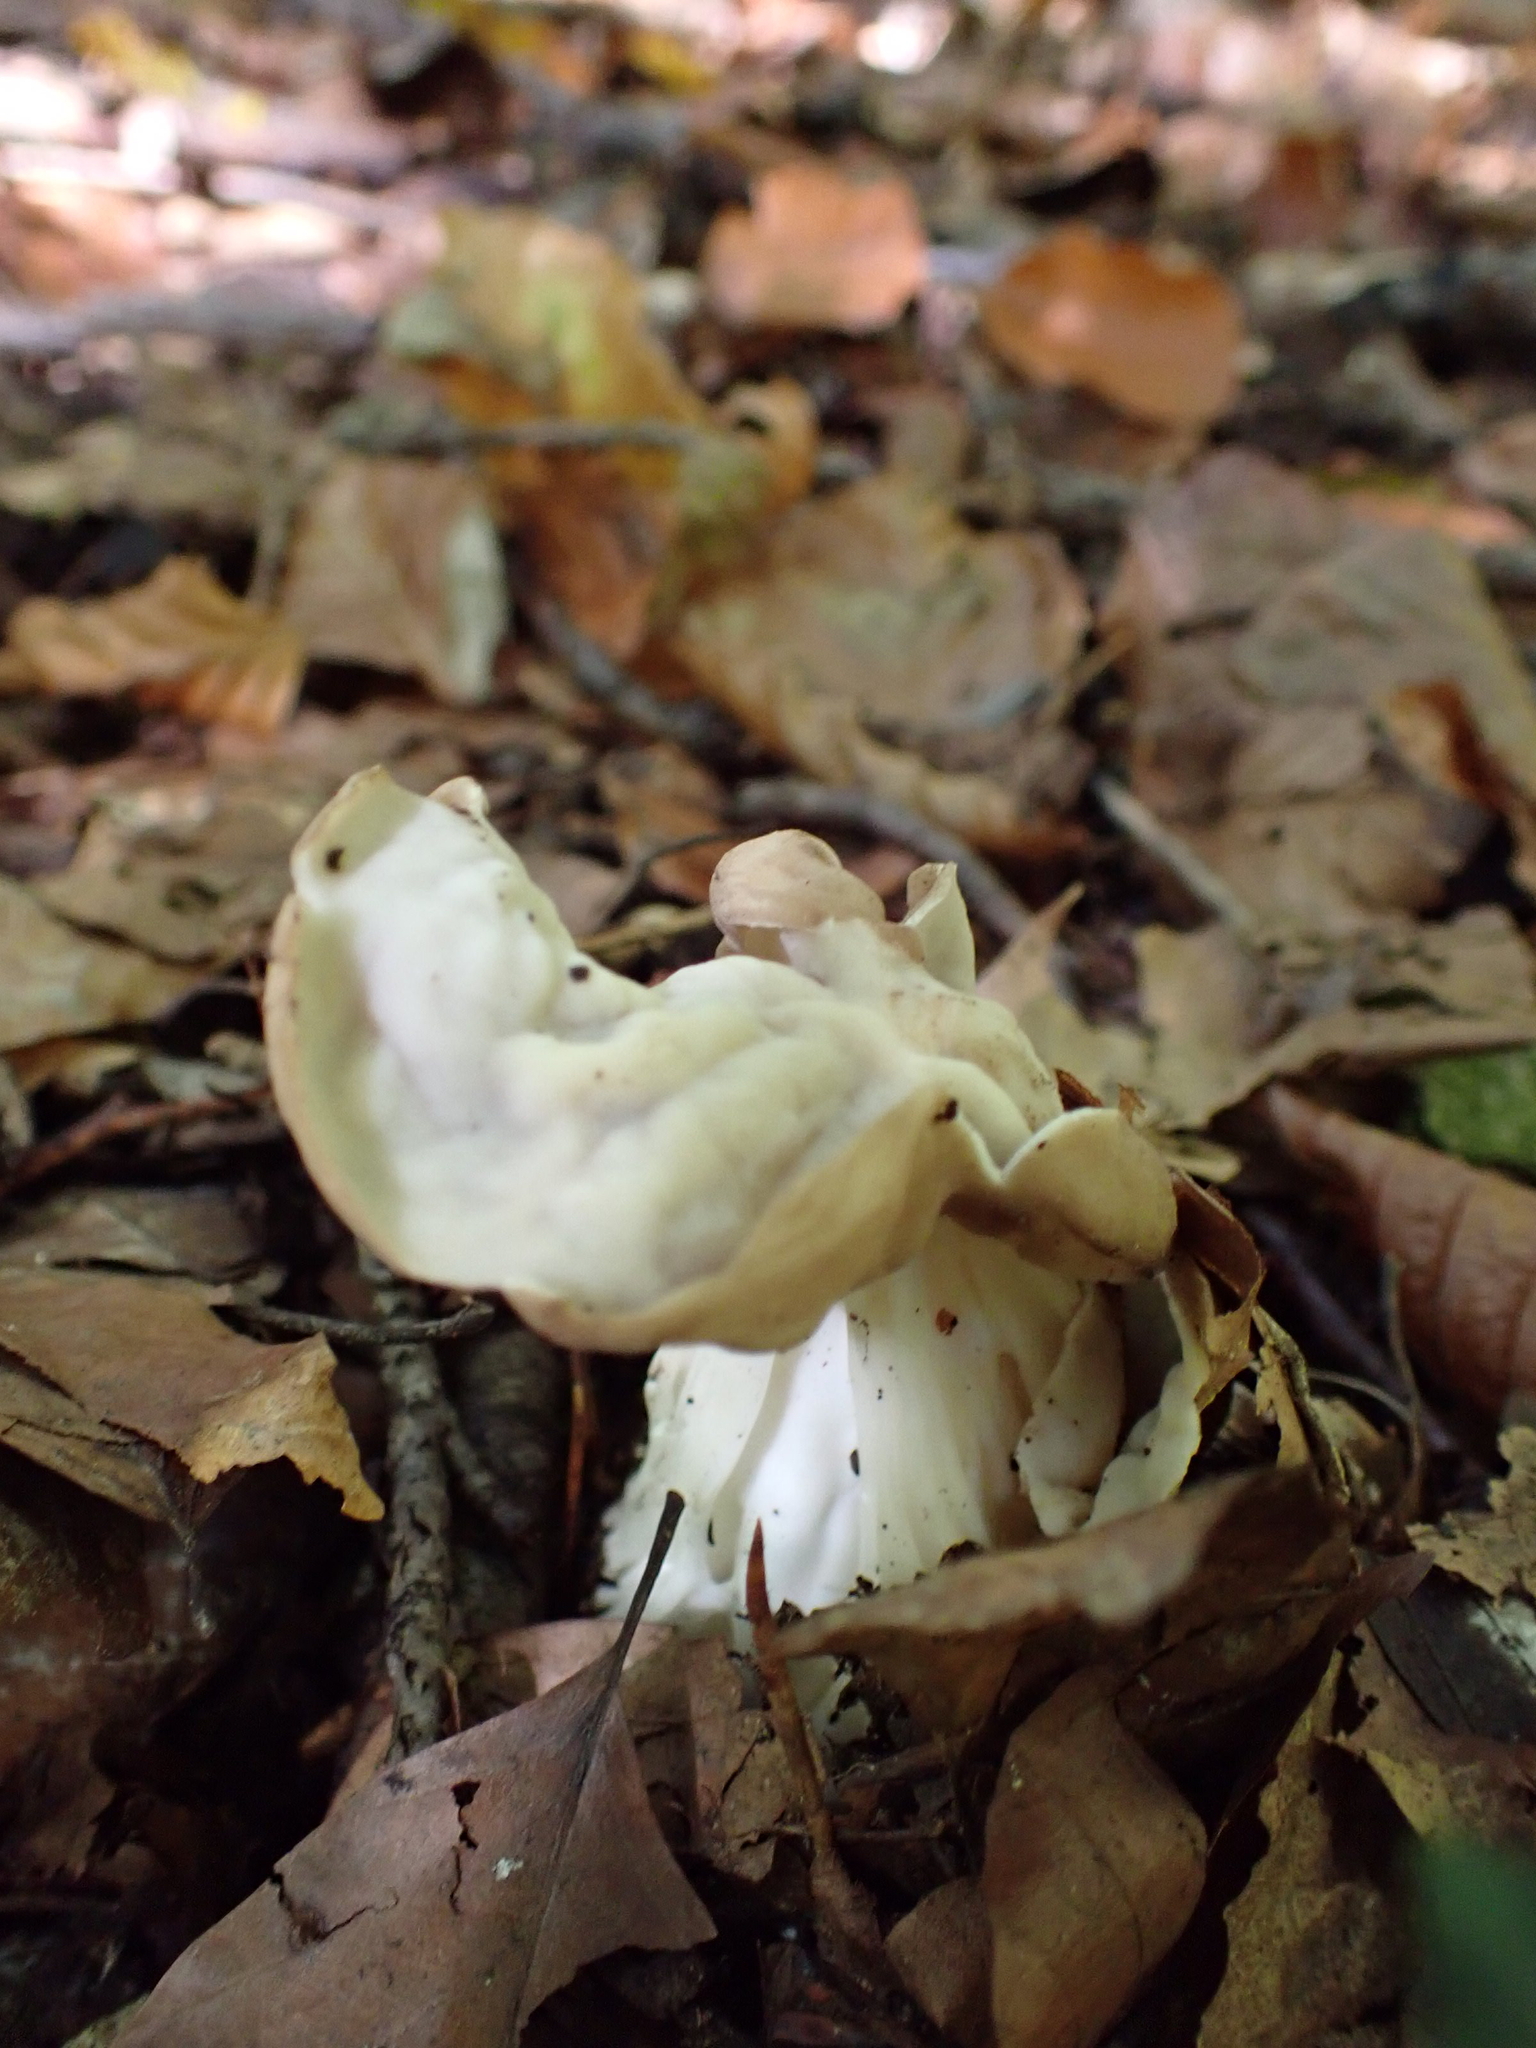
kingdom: Fungi
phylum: Ascomycota
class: Pezizomycetes
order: Pezizales
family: Helvellaceae
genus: Helvella
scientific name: Helvella crispa
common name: White saddle
